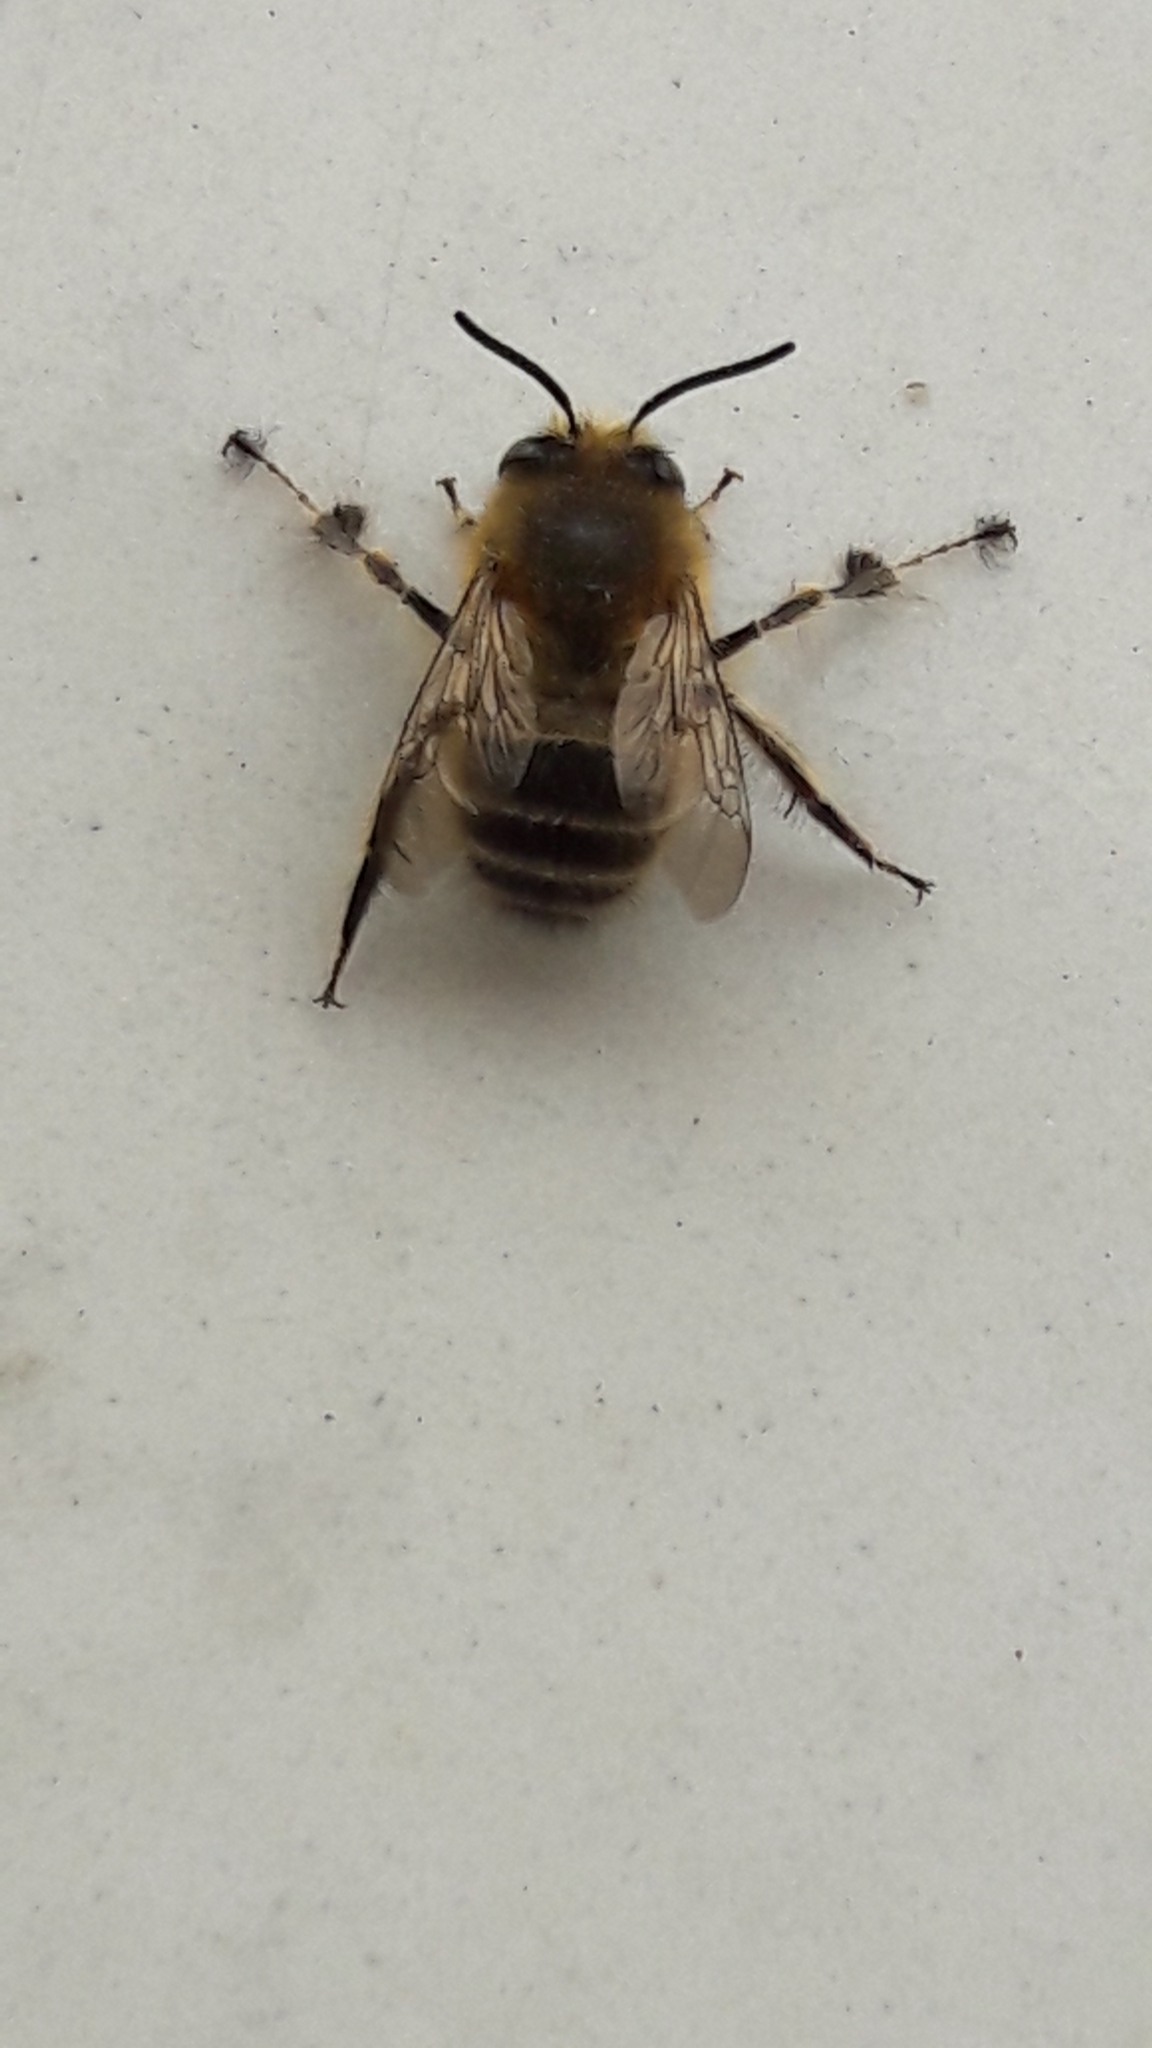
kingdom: Animalia
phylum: Arthropoda
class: Insecta
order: Hymenoptera
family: Apidae
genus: Anthophora
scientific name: Anthophora crinipes
